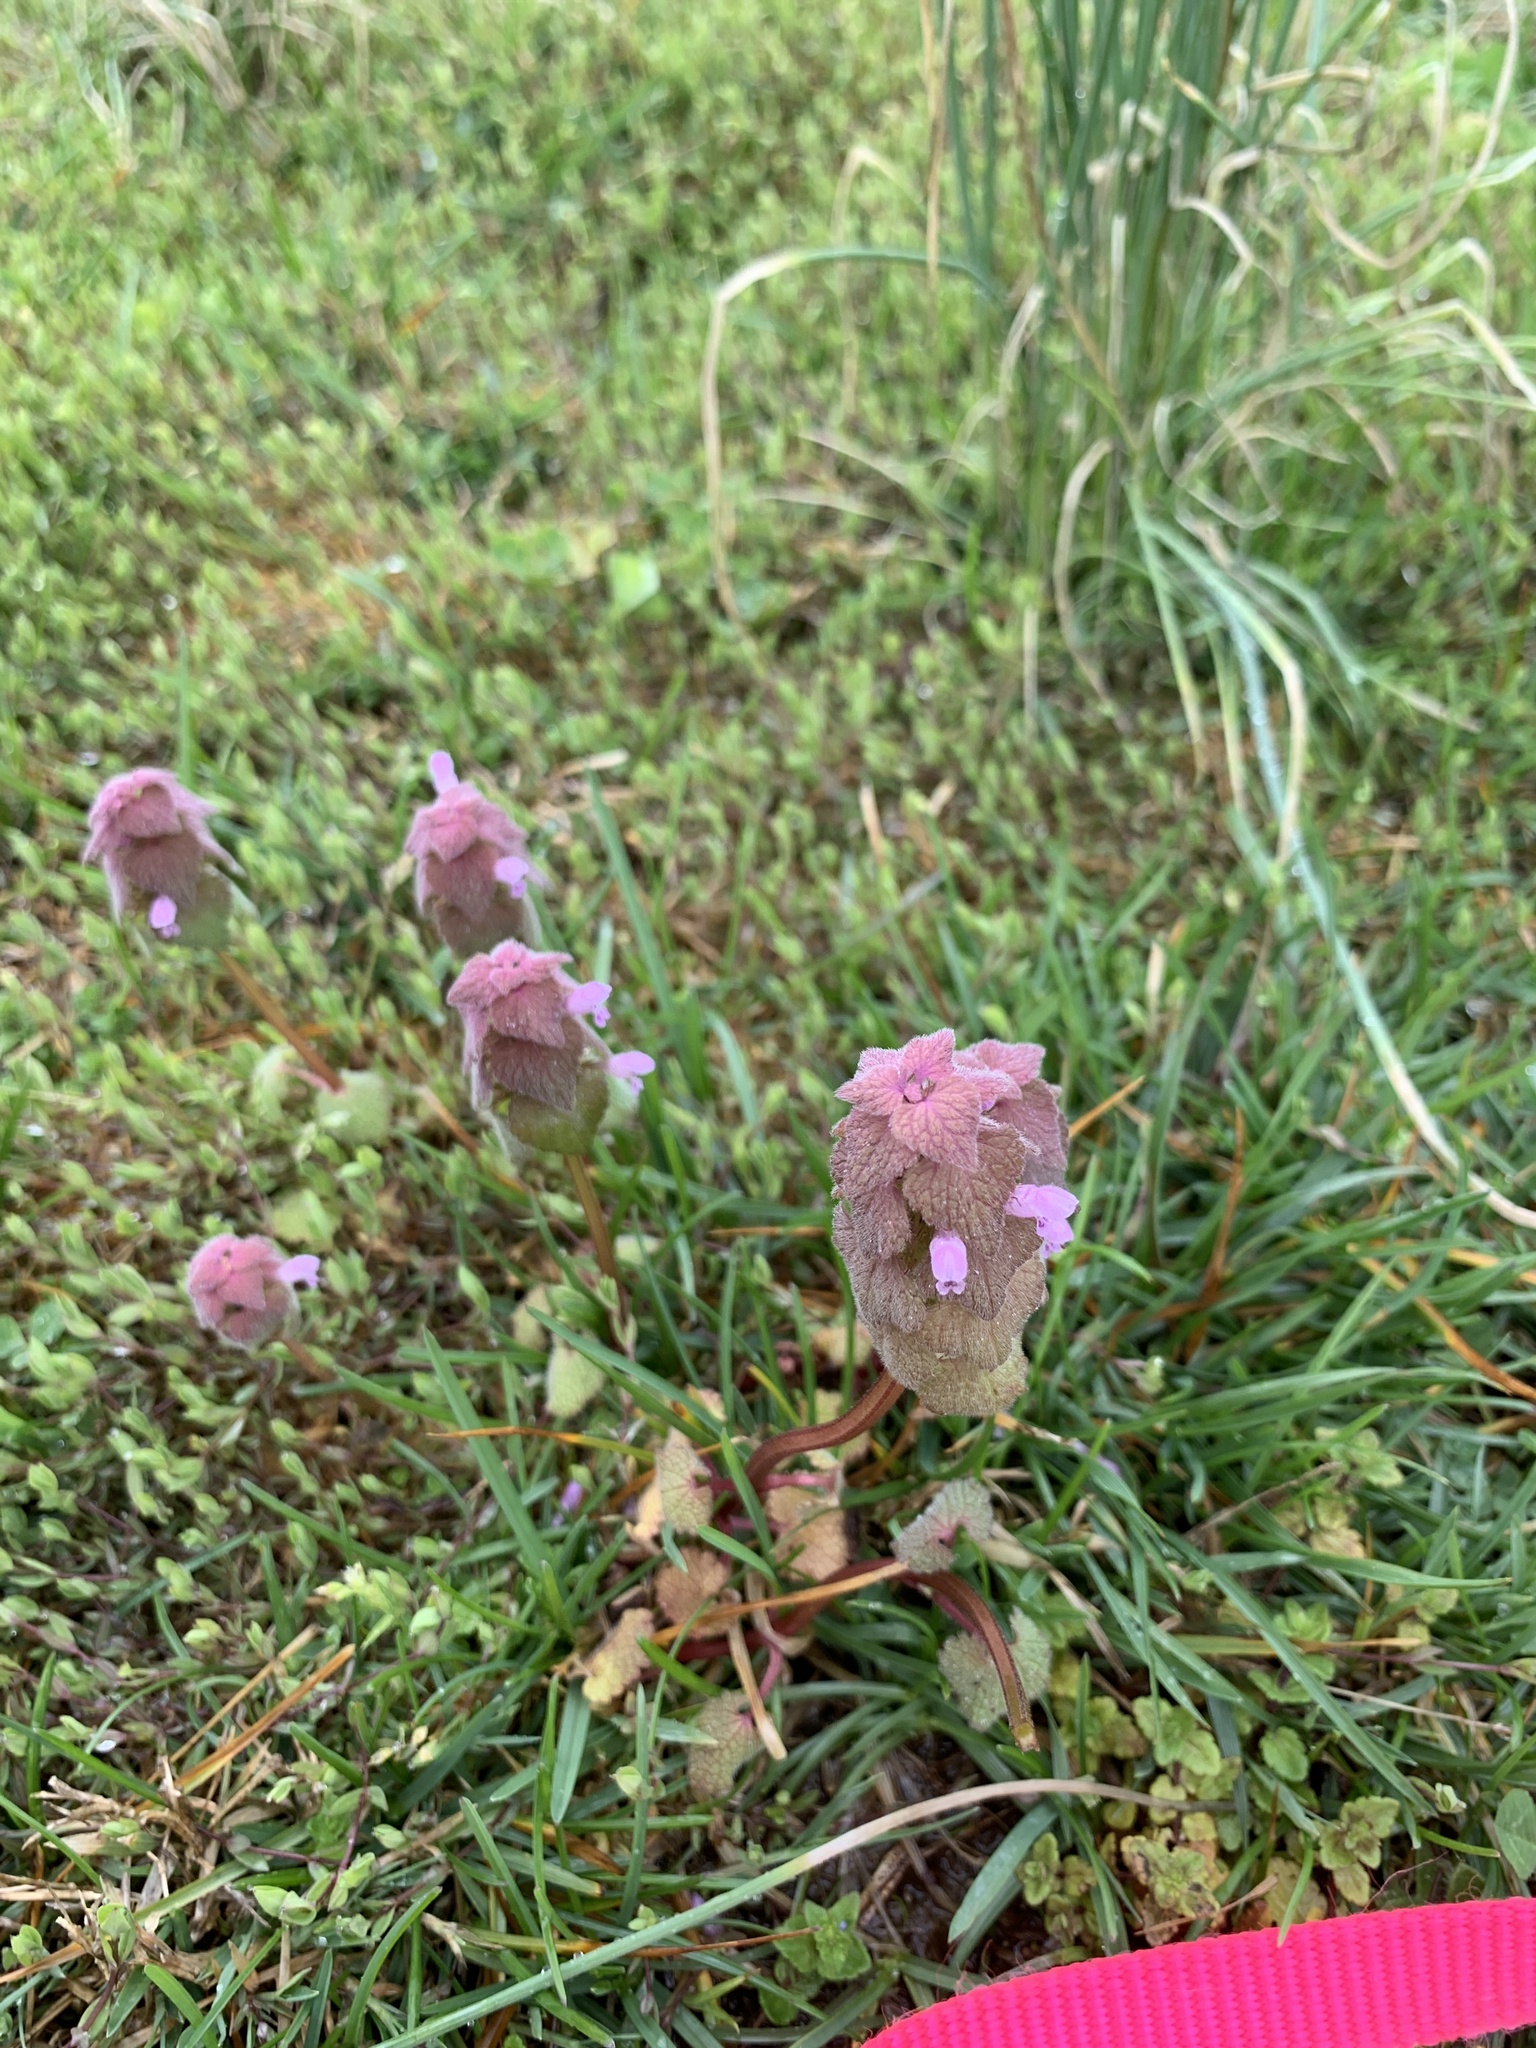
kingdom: Plantae
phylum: Tracheophyta
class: Magnoliopsida
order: Lamiales
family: Lamiaceae
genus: Lamium
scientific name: Lamium purpureum
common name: Red dead-nettle
